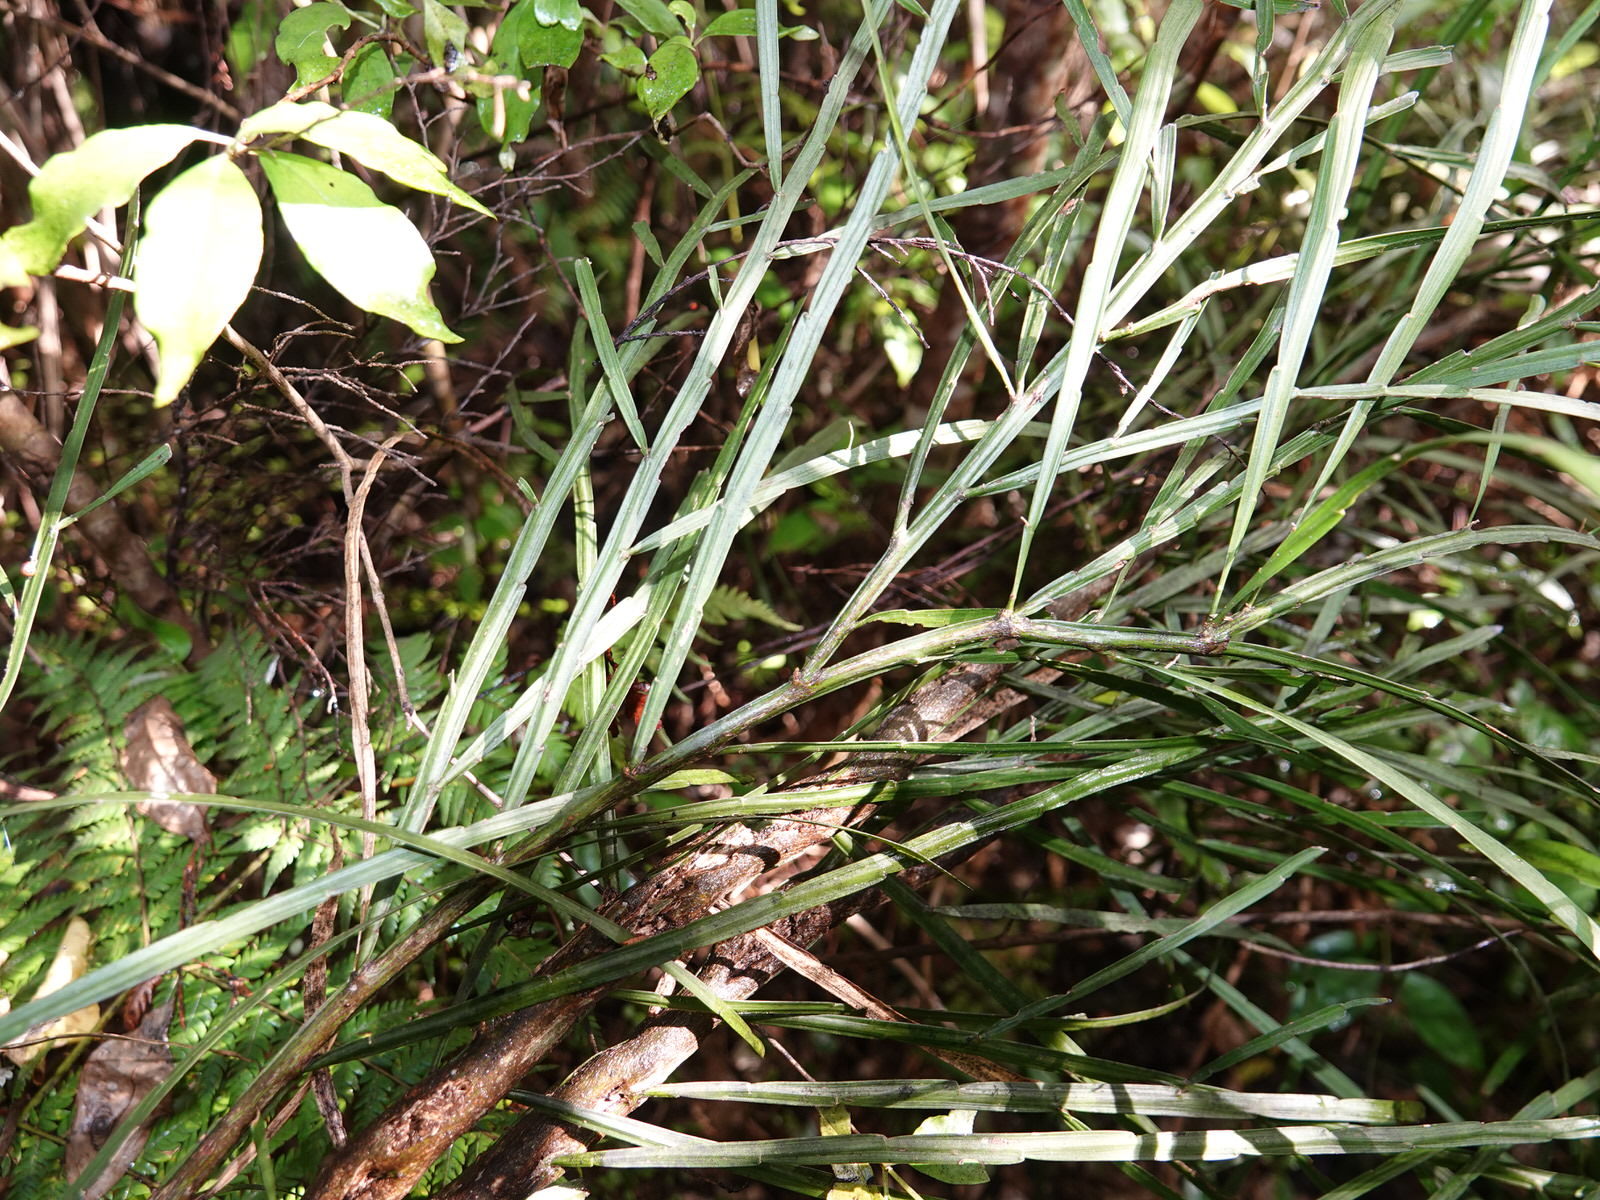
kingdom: Plantae
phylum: Tracheophyta
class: Magnoliopsida
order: Fabales
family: Fabaceae
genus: Carmichaelia
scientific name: Carmichaelia australis
